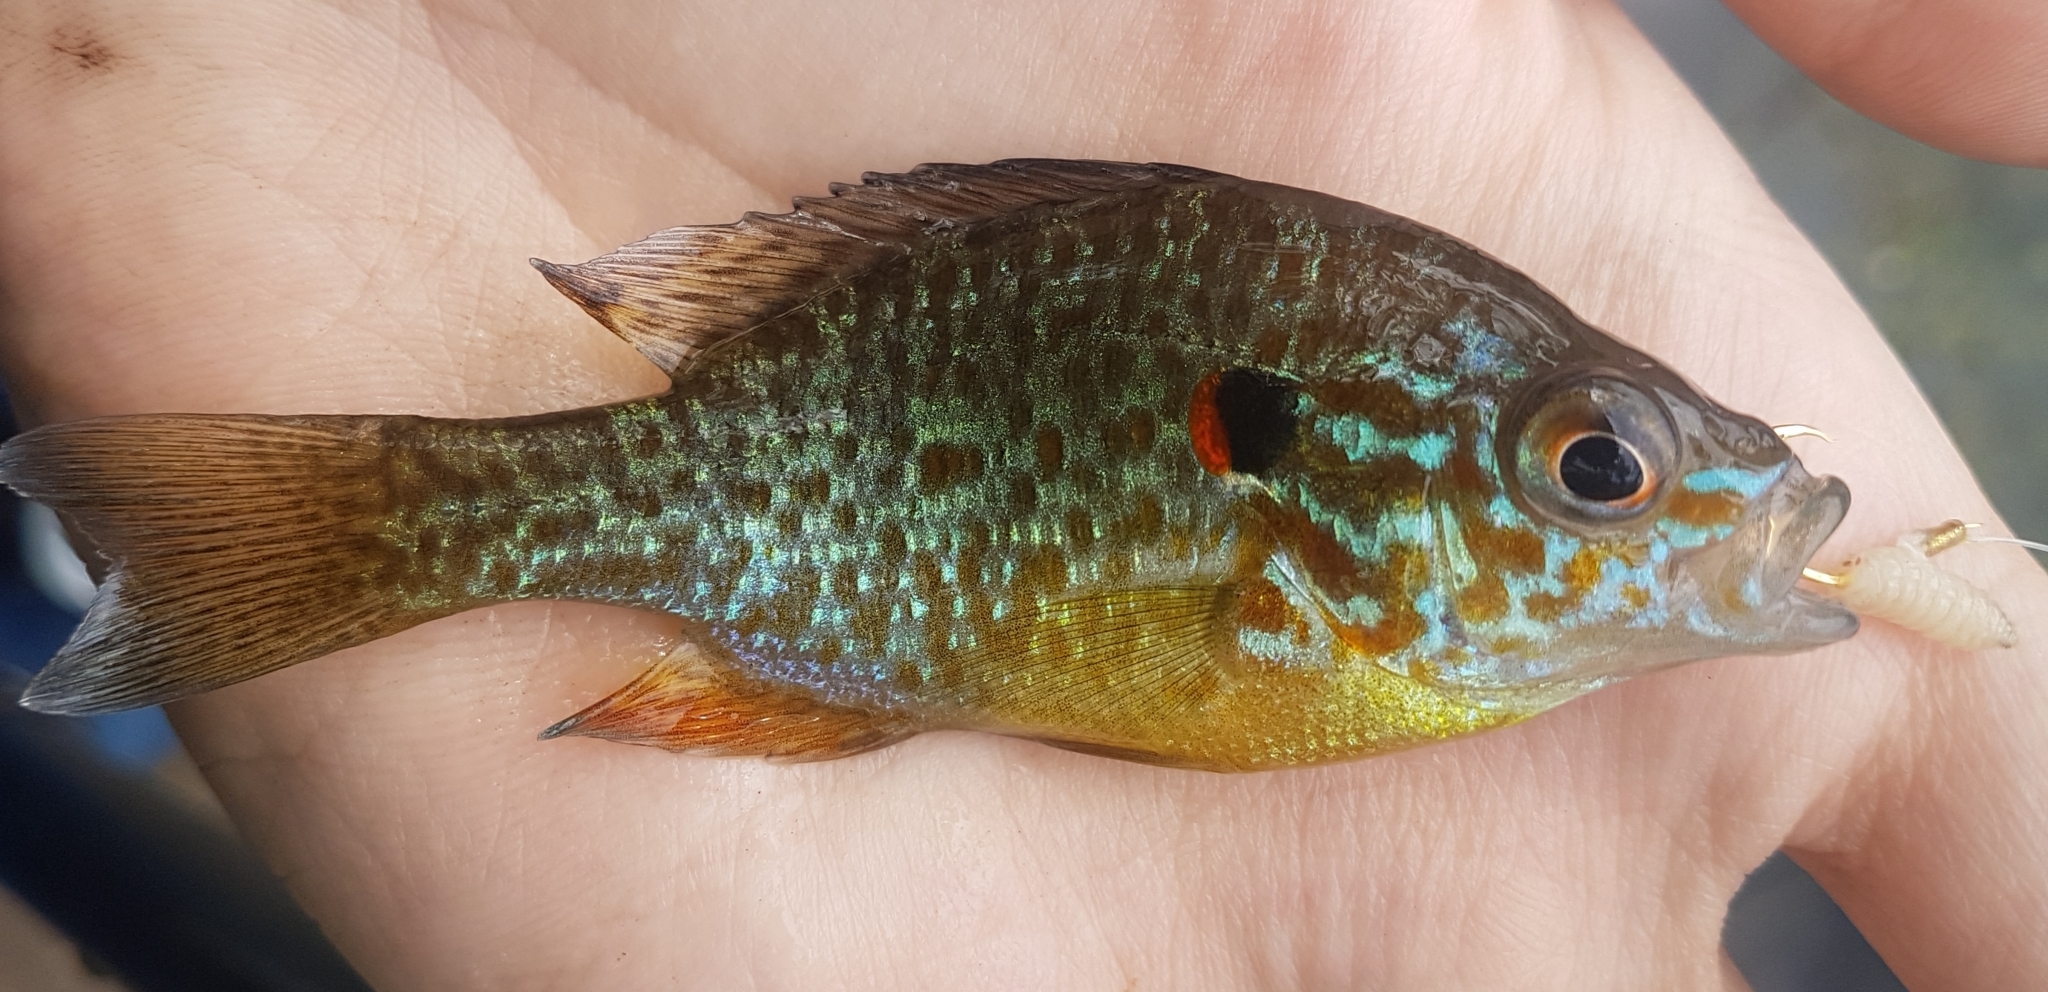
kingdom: Animalia
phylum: Chordata
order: Perciformes
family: Centrarchidae
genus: Lepomis
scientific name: Lepomis gibbosus
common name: Pumpkinseed
